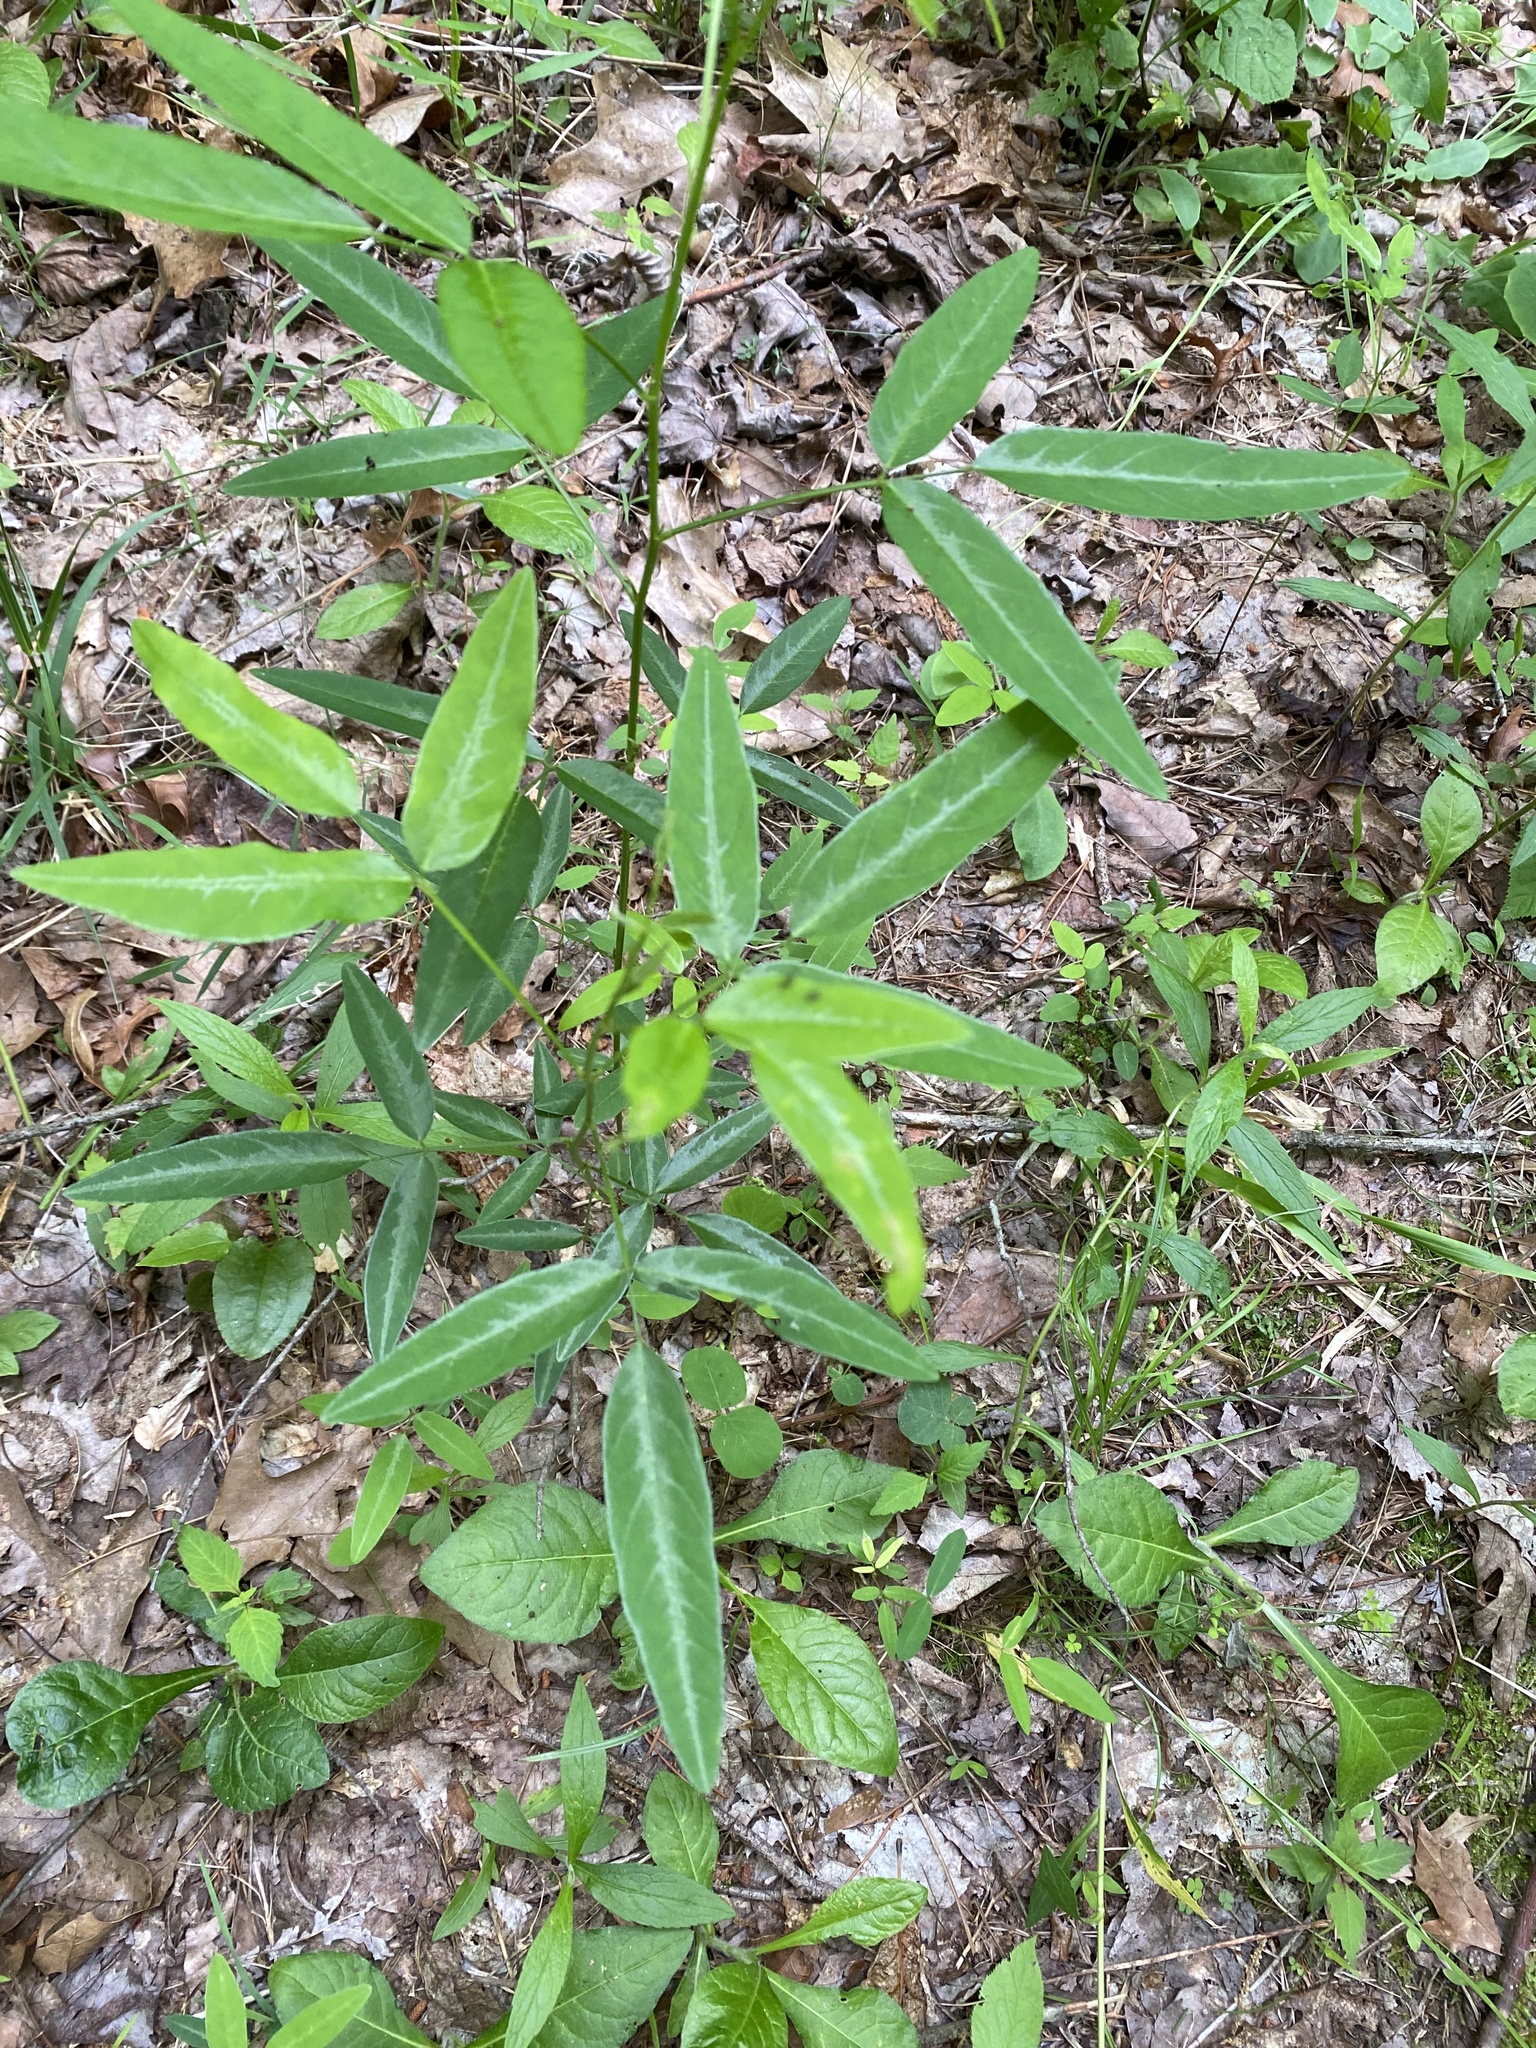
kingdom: Plantae
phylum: Tracheophyta
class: Magnoliopsida
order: Fabales
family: Fabaceae
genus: Desmodium
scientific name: Desmodium paniculatum
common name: Panicled tick-clover
